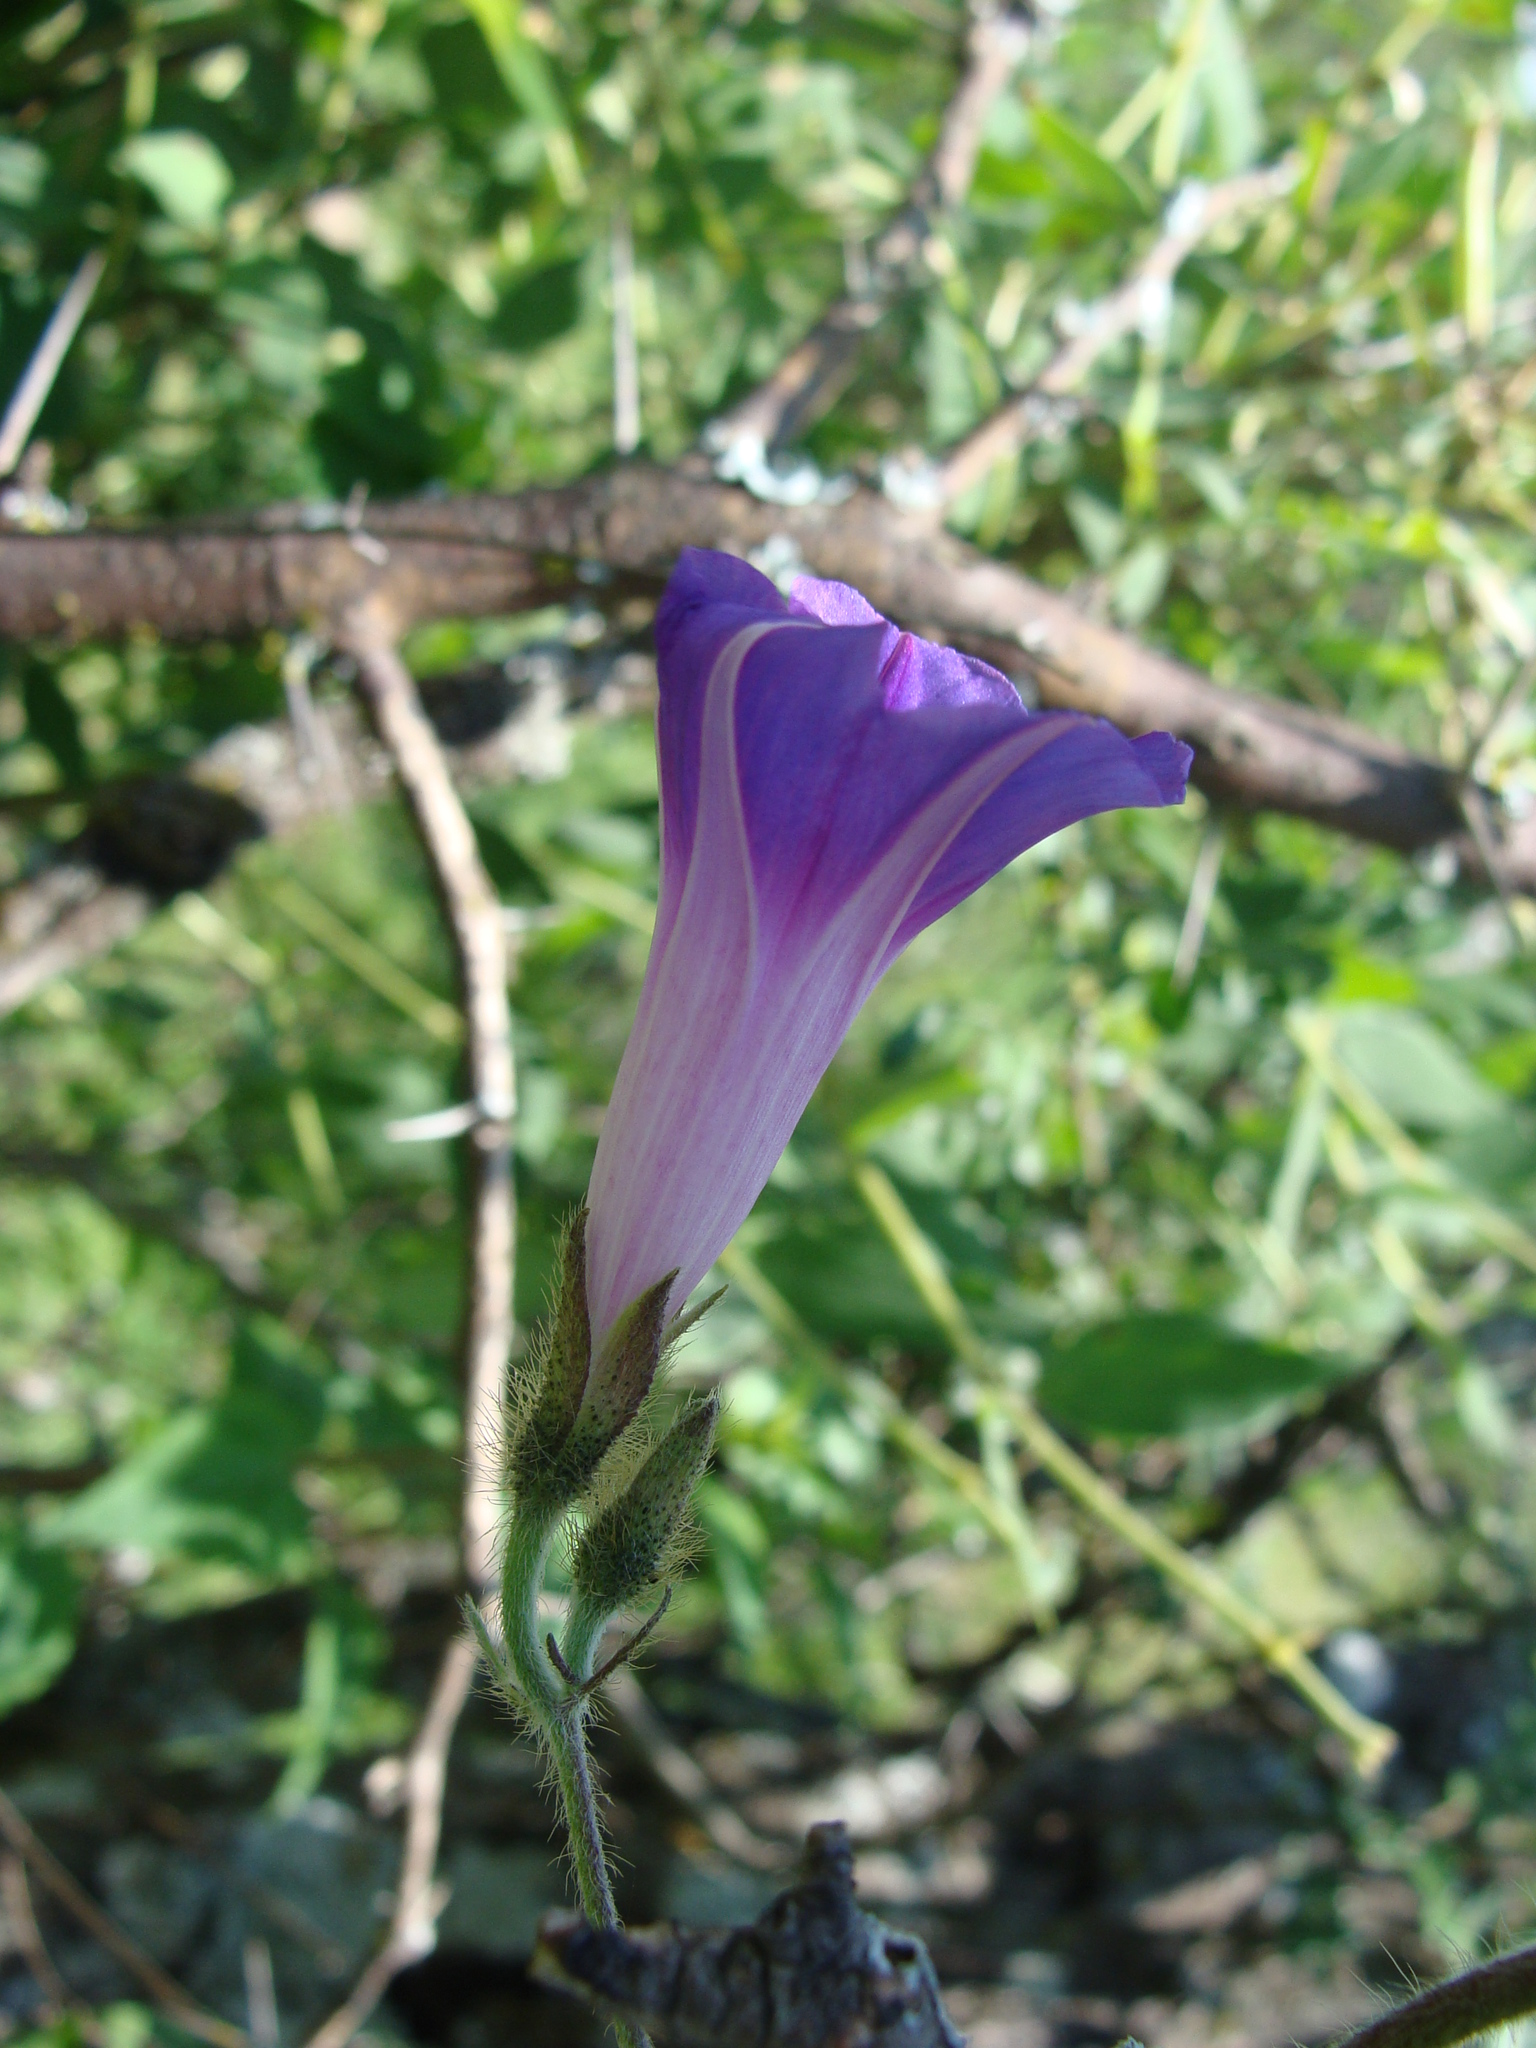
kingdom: Plantae
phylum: Tracheophyta
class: Magnoliopsida
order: Solanales
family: Convolvulaceae
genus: Ipomoea
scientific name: Ipomoea purpurea
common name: Common morning-glory
